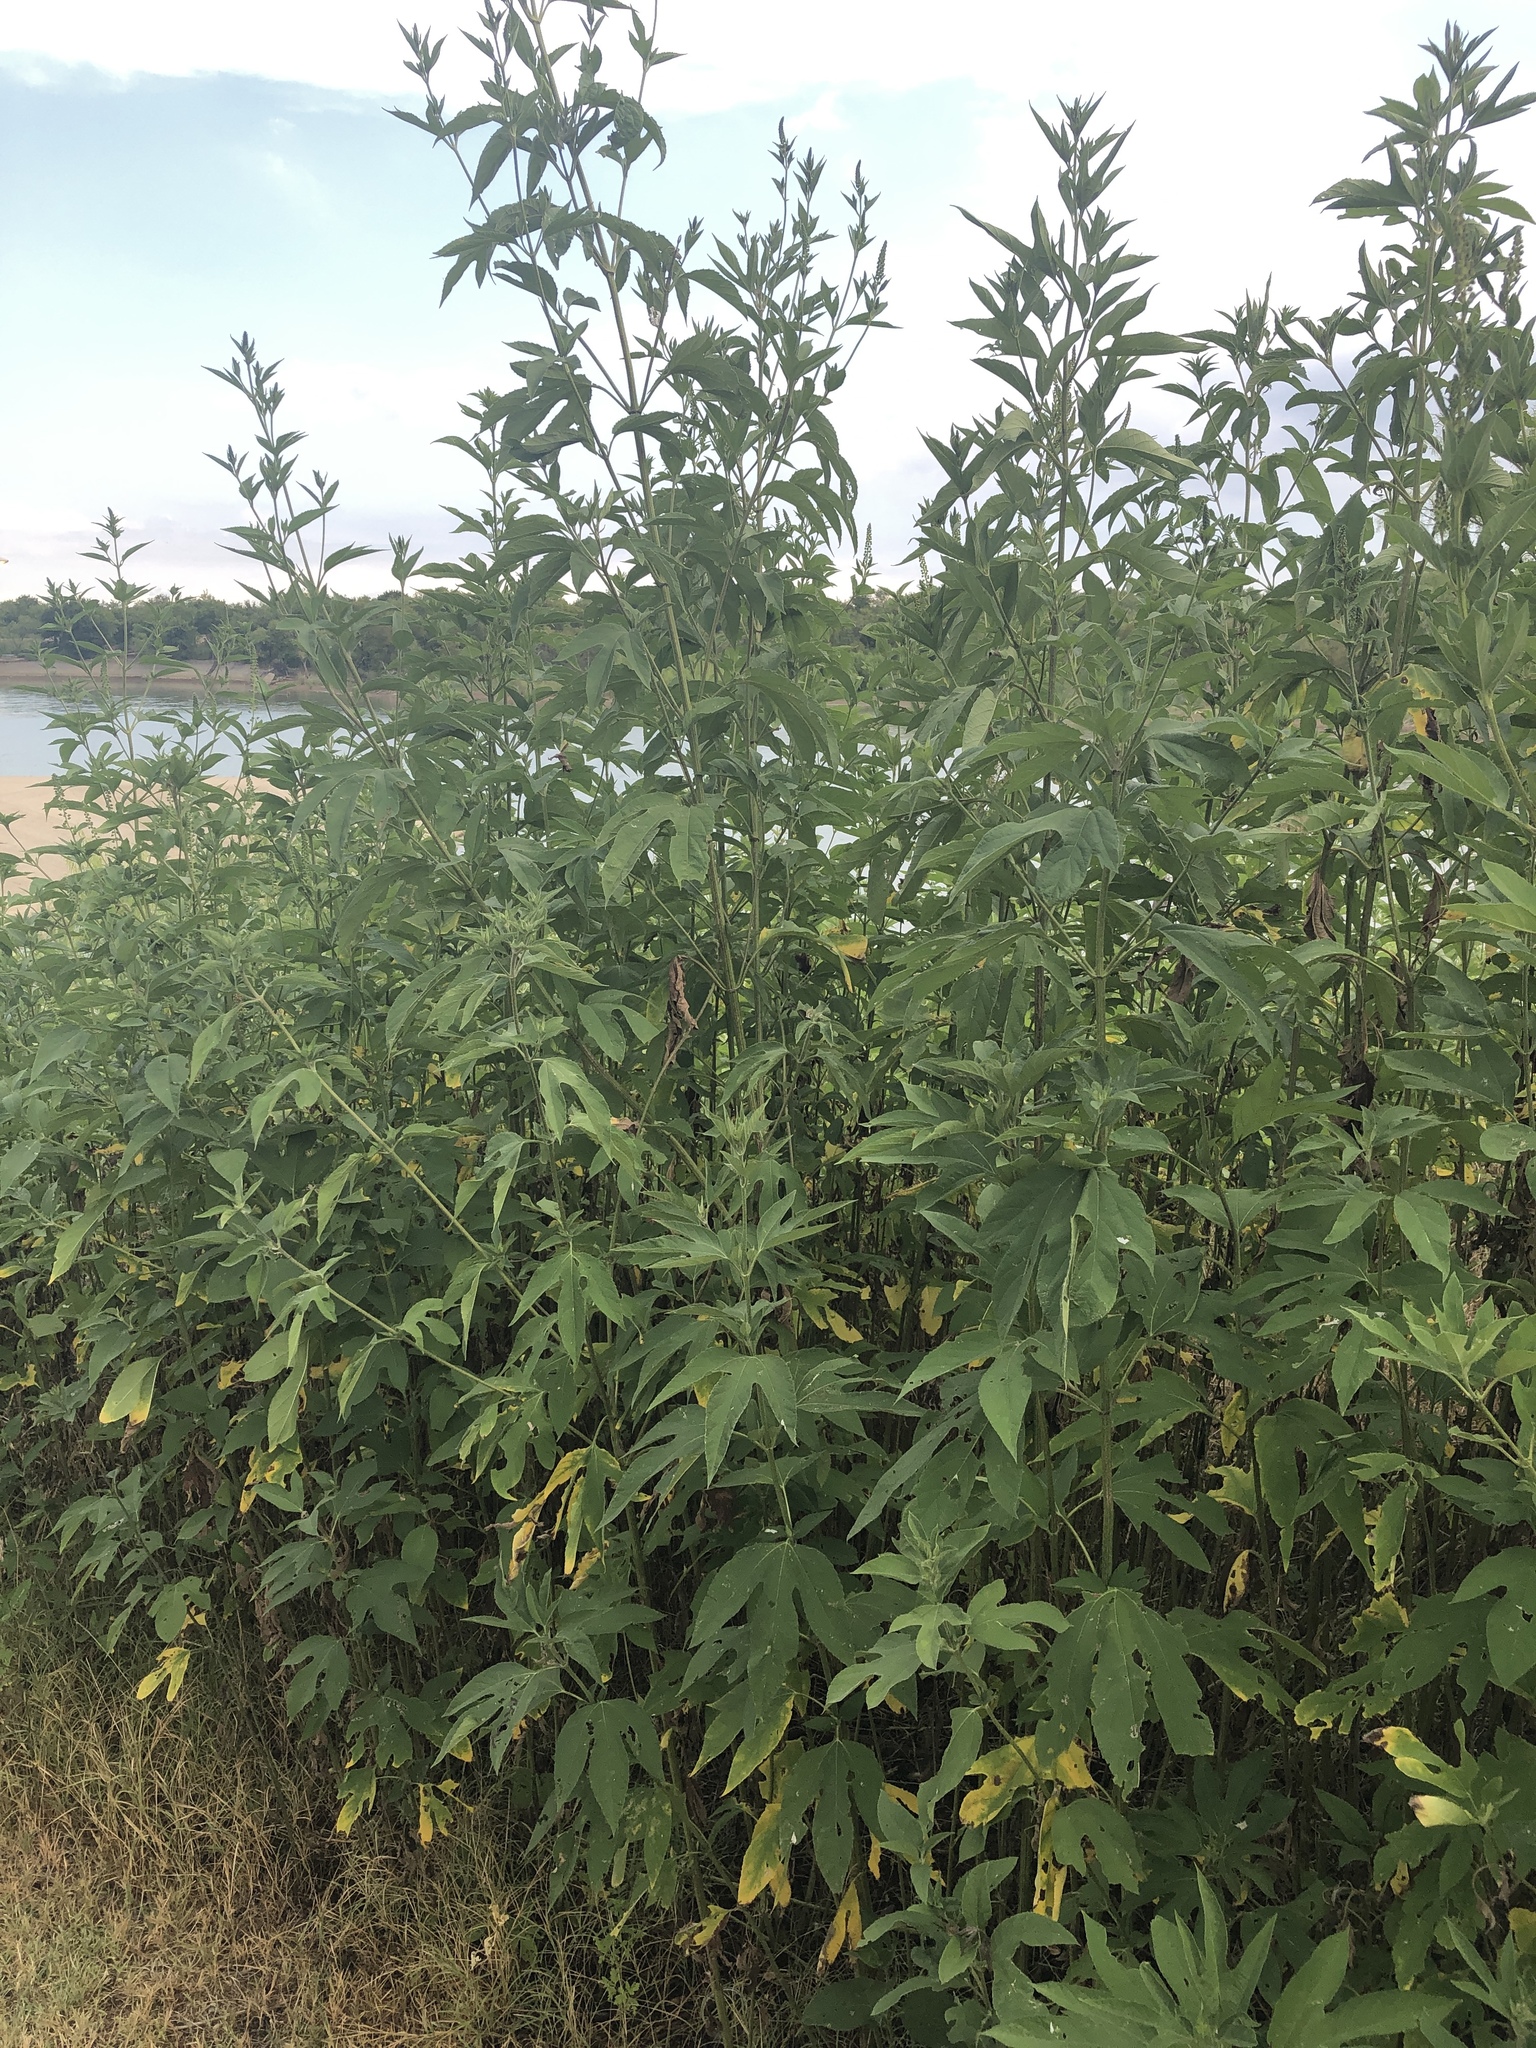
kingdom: Plantae
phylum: Tracheophyta
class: Magnoliopsida
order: Asterales
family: Asteraceae
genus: Ambrosia
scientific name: Ambrosia trifida
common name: Giant ragweed
